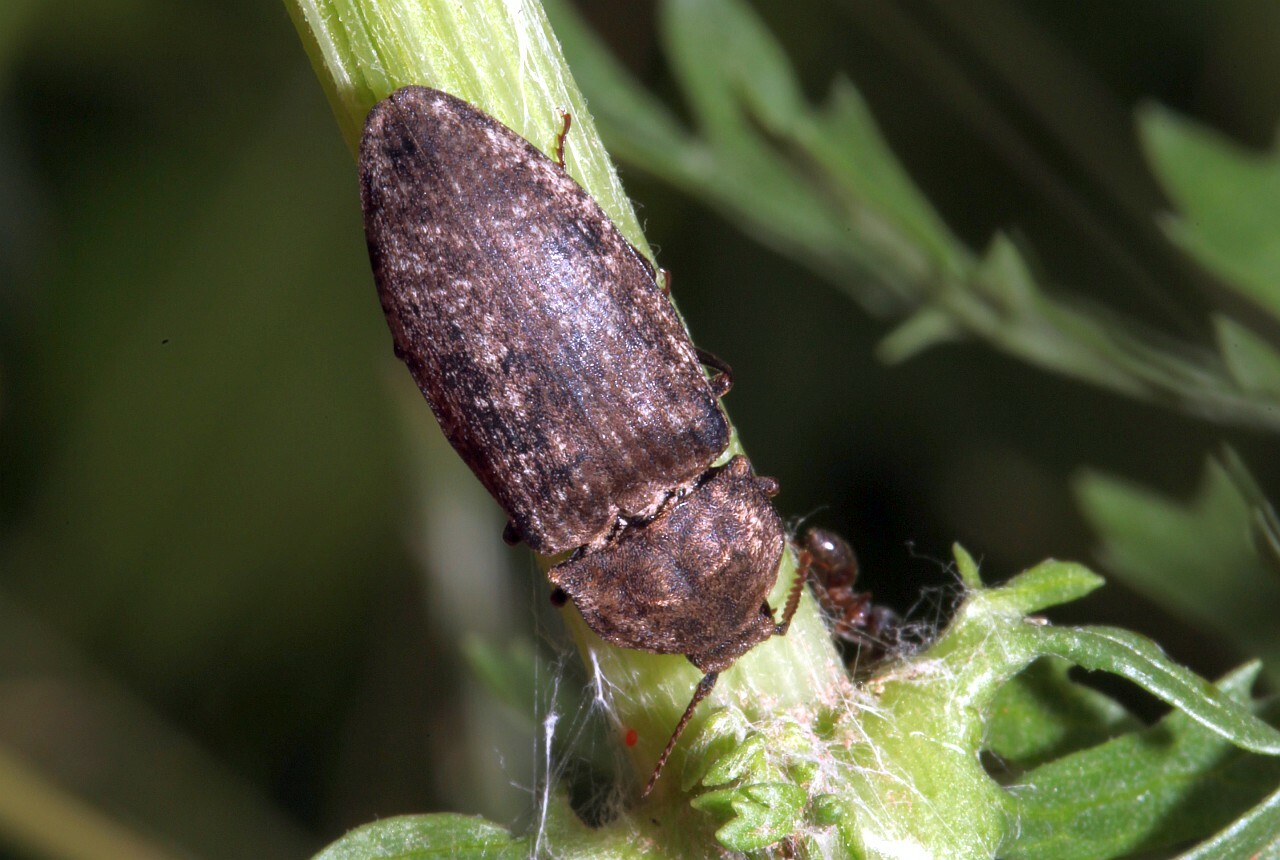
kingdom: Animalia
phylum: Arthropoda
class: Insecta
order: Coleoptera
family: Elateridae
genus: Agrypnus
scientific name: Agrypnus murinus
